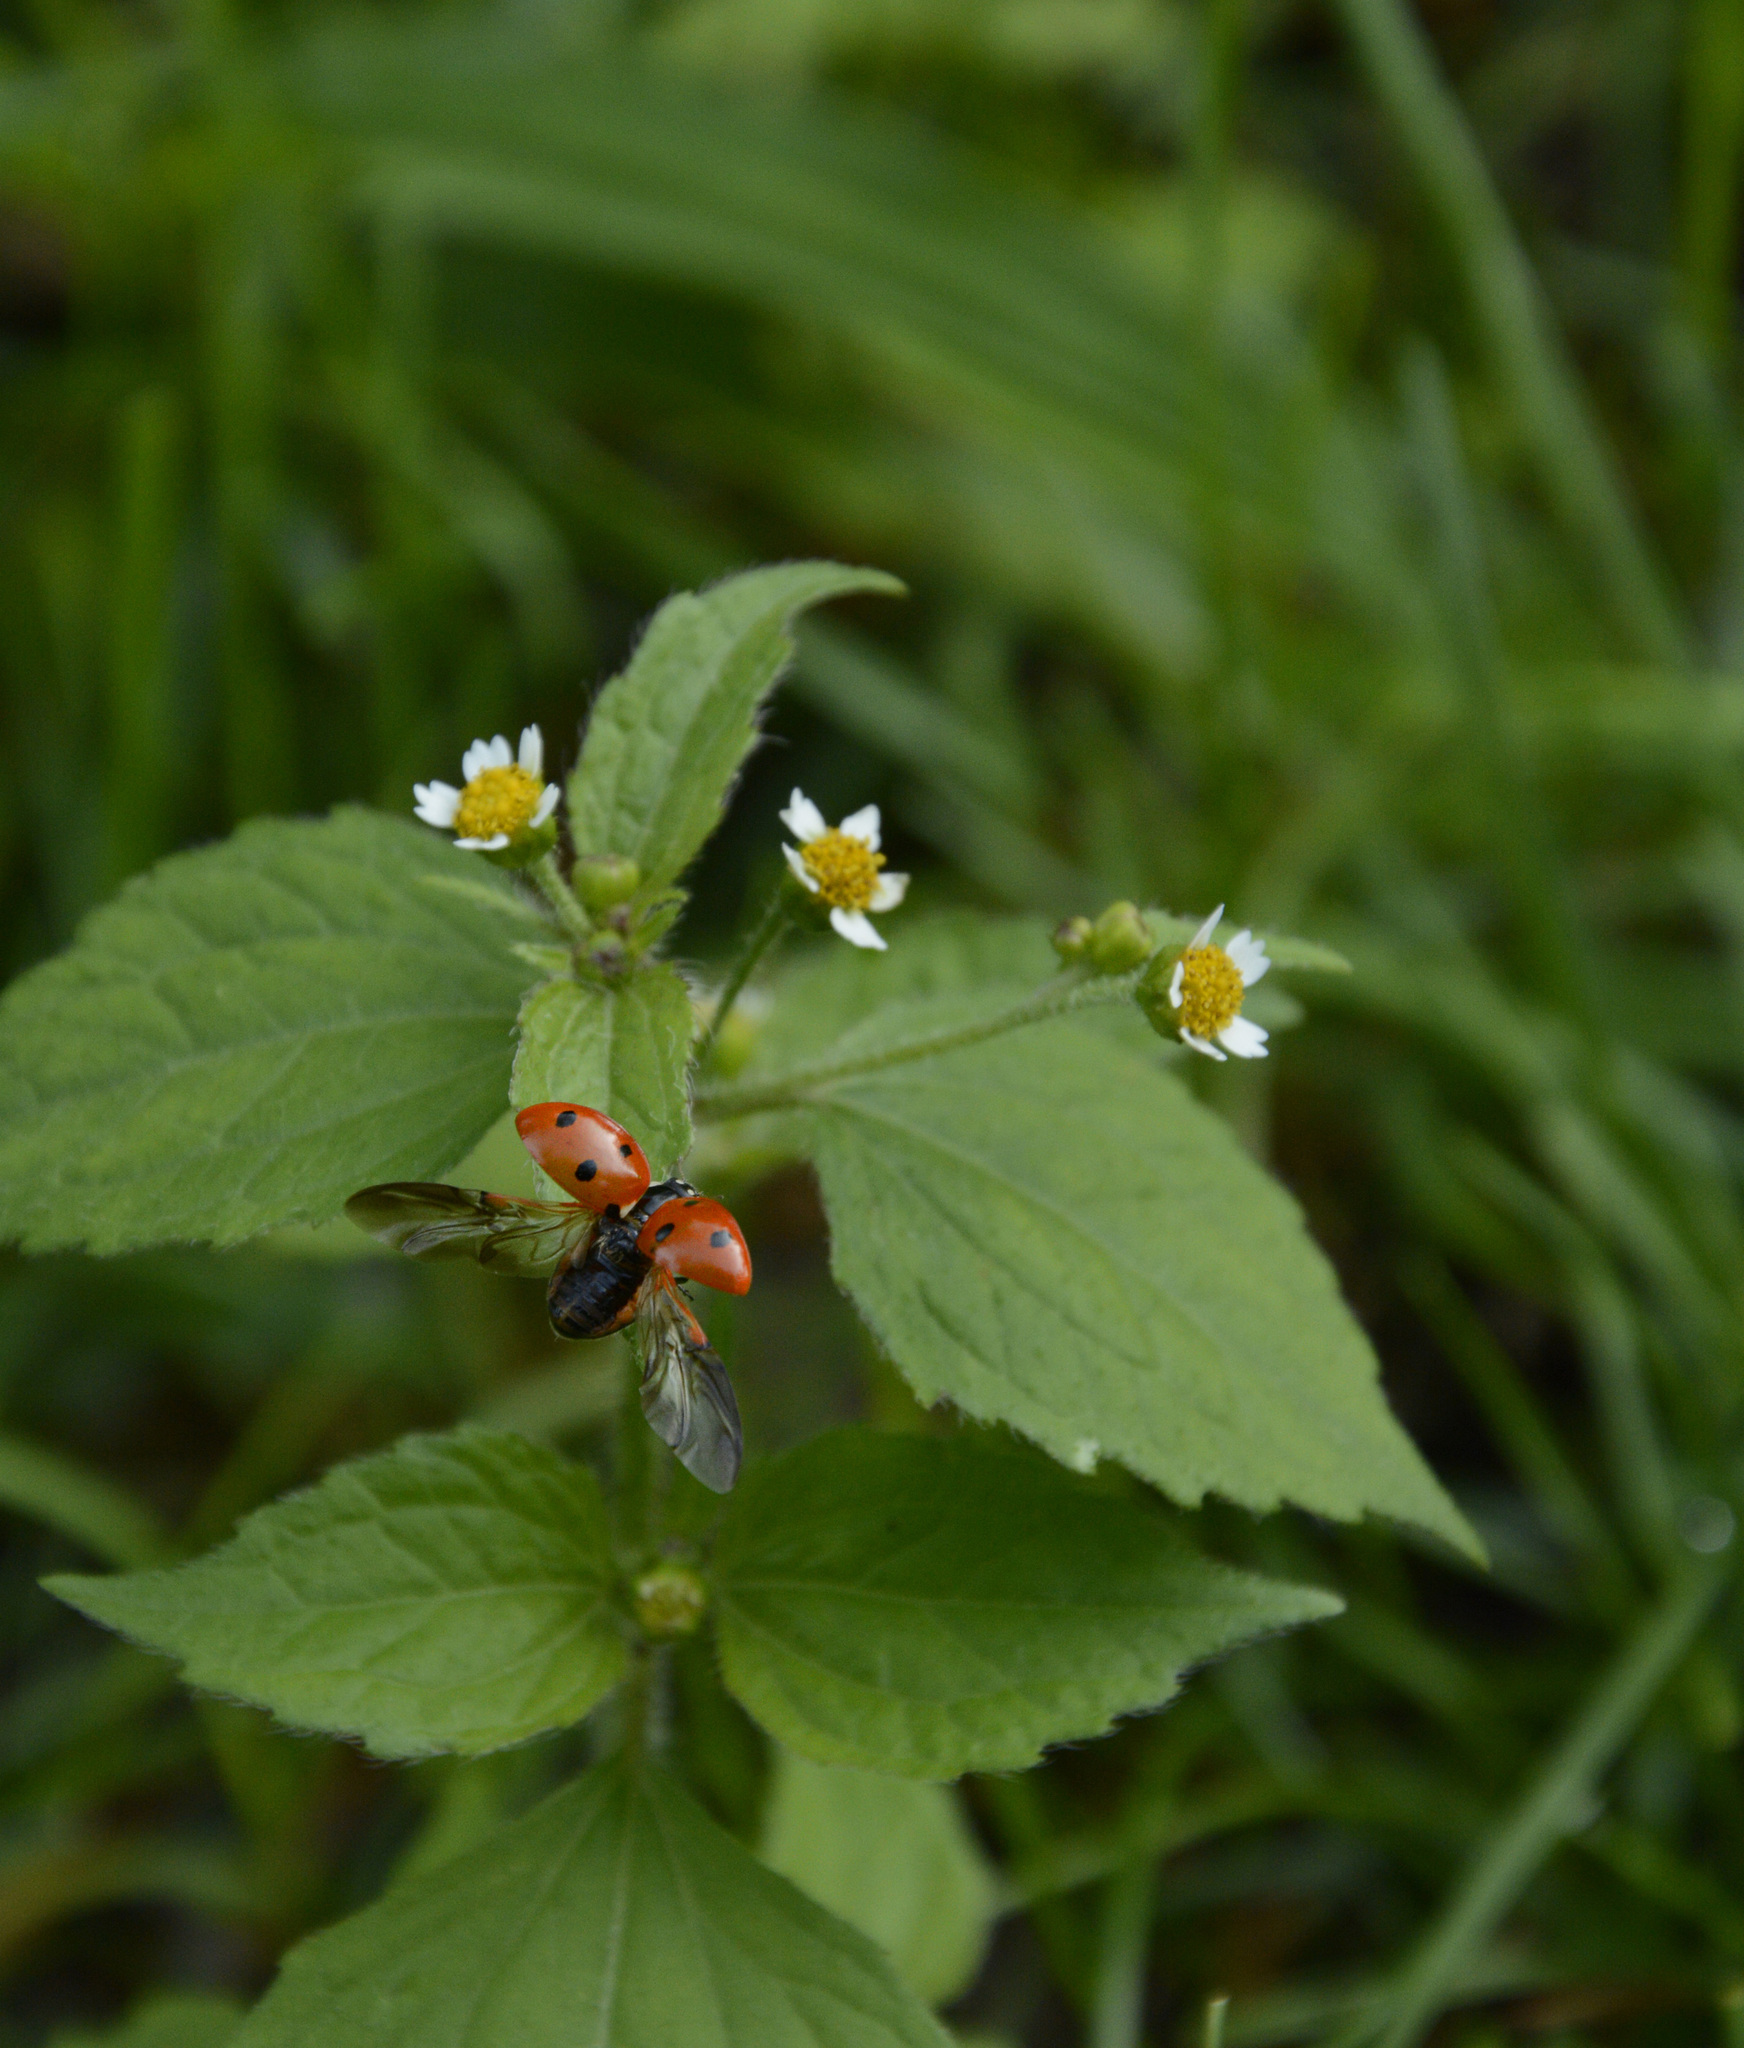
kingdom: Plantae
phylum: Tracheophyta
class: Magnoliopsida
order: Asterales
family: Asteraceae
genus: Galinsoga
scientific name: Galinsoga parviflora
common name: Gallant soldier
